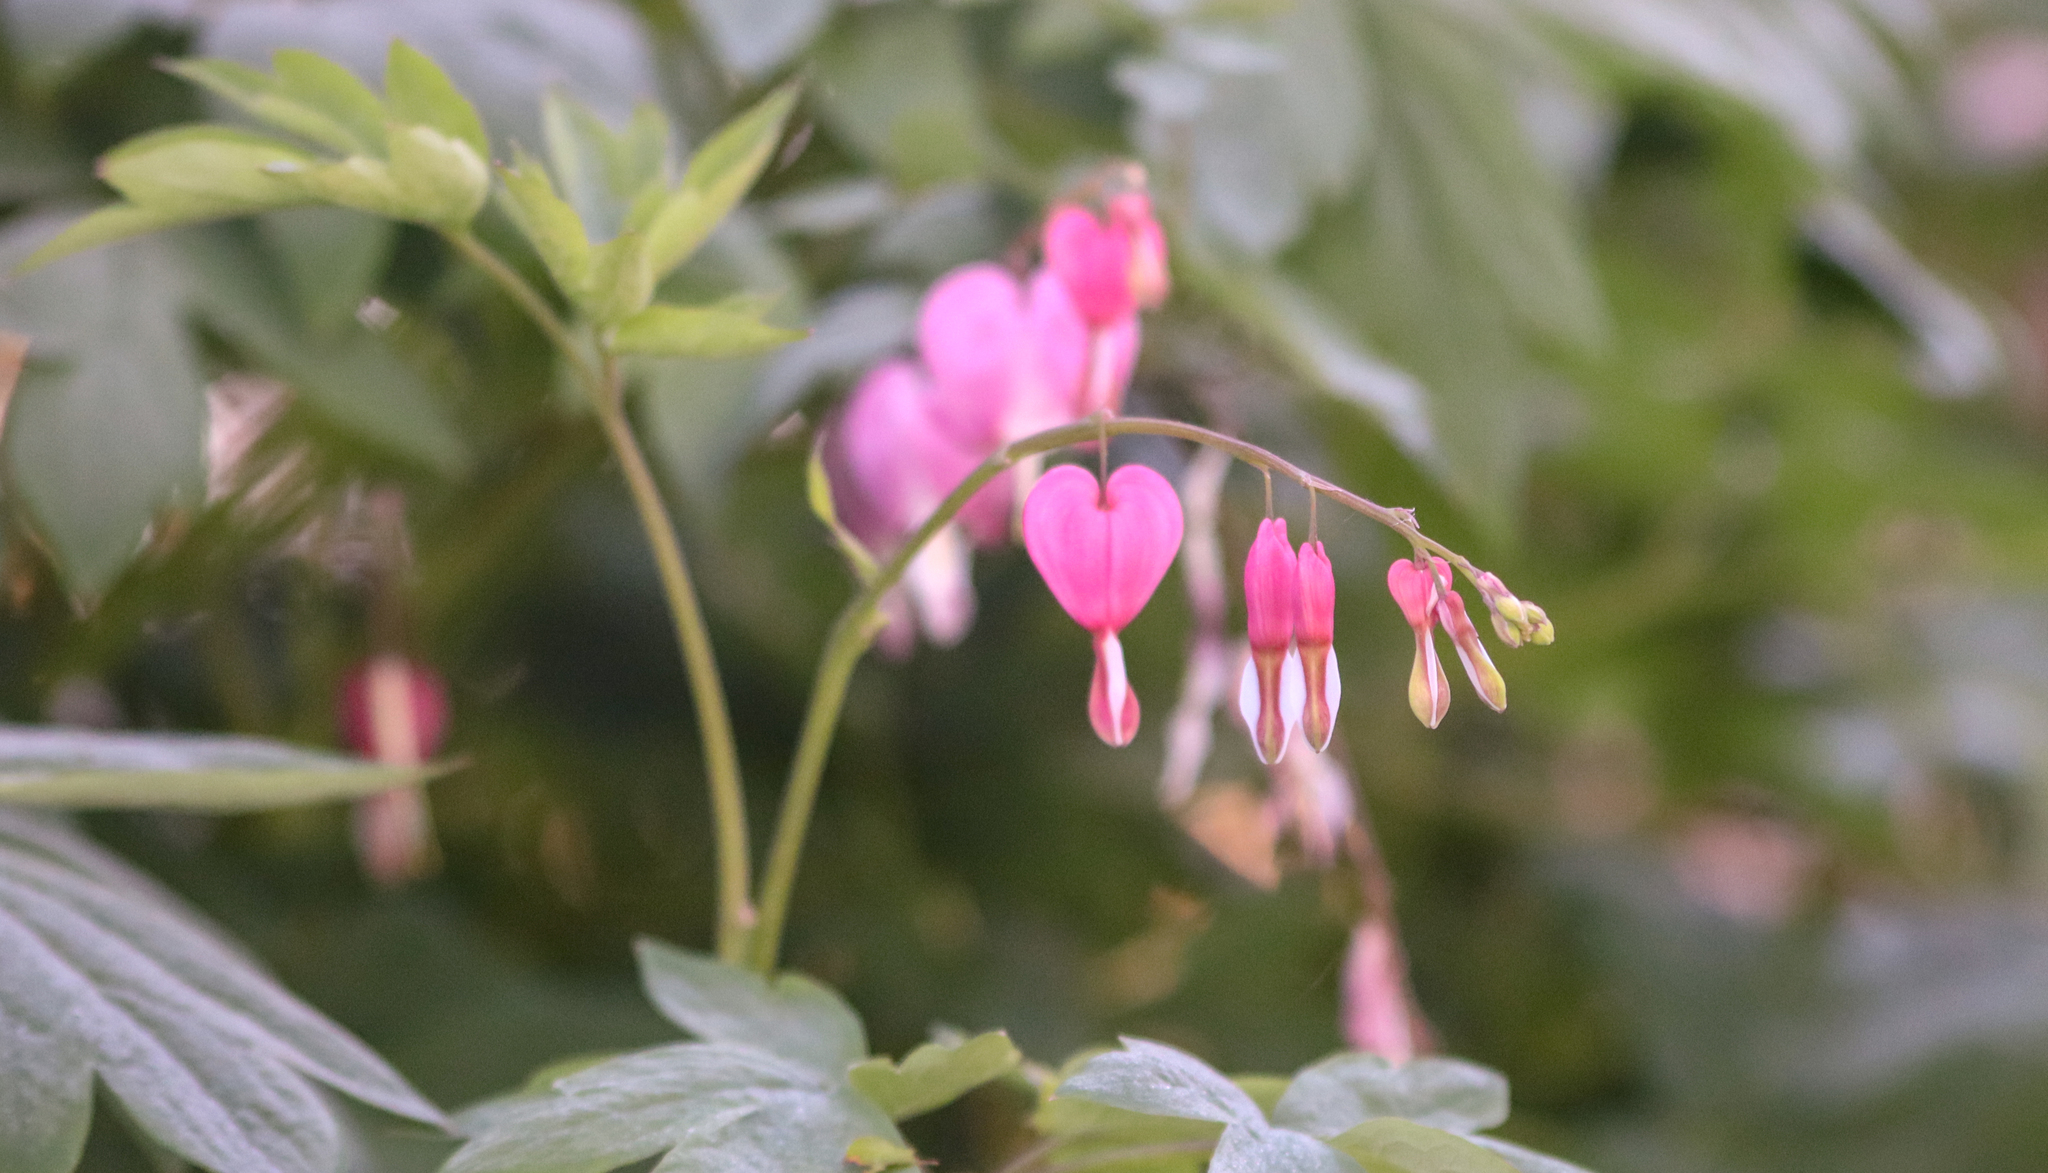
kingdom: Plantae
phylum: Tracheophyta
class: Magnoliopsida
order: Ranunculales
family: Papaveraceae
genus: Lamprocapnos
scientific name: Lamprocapnos spectabilis
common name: Asian bleeding-heart
